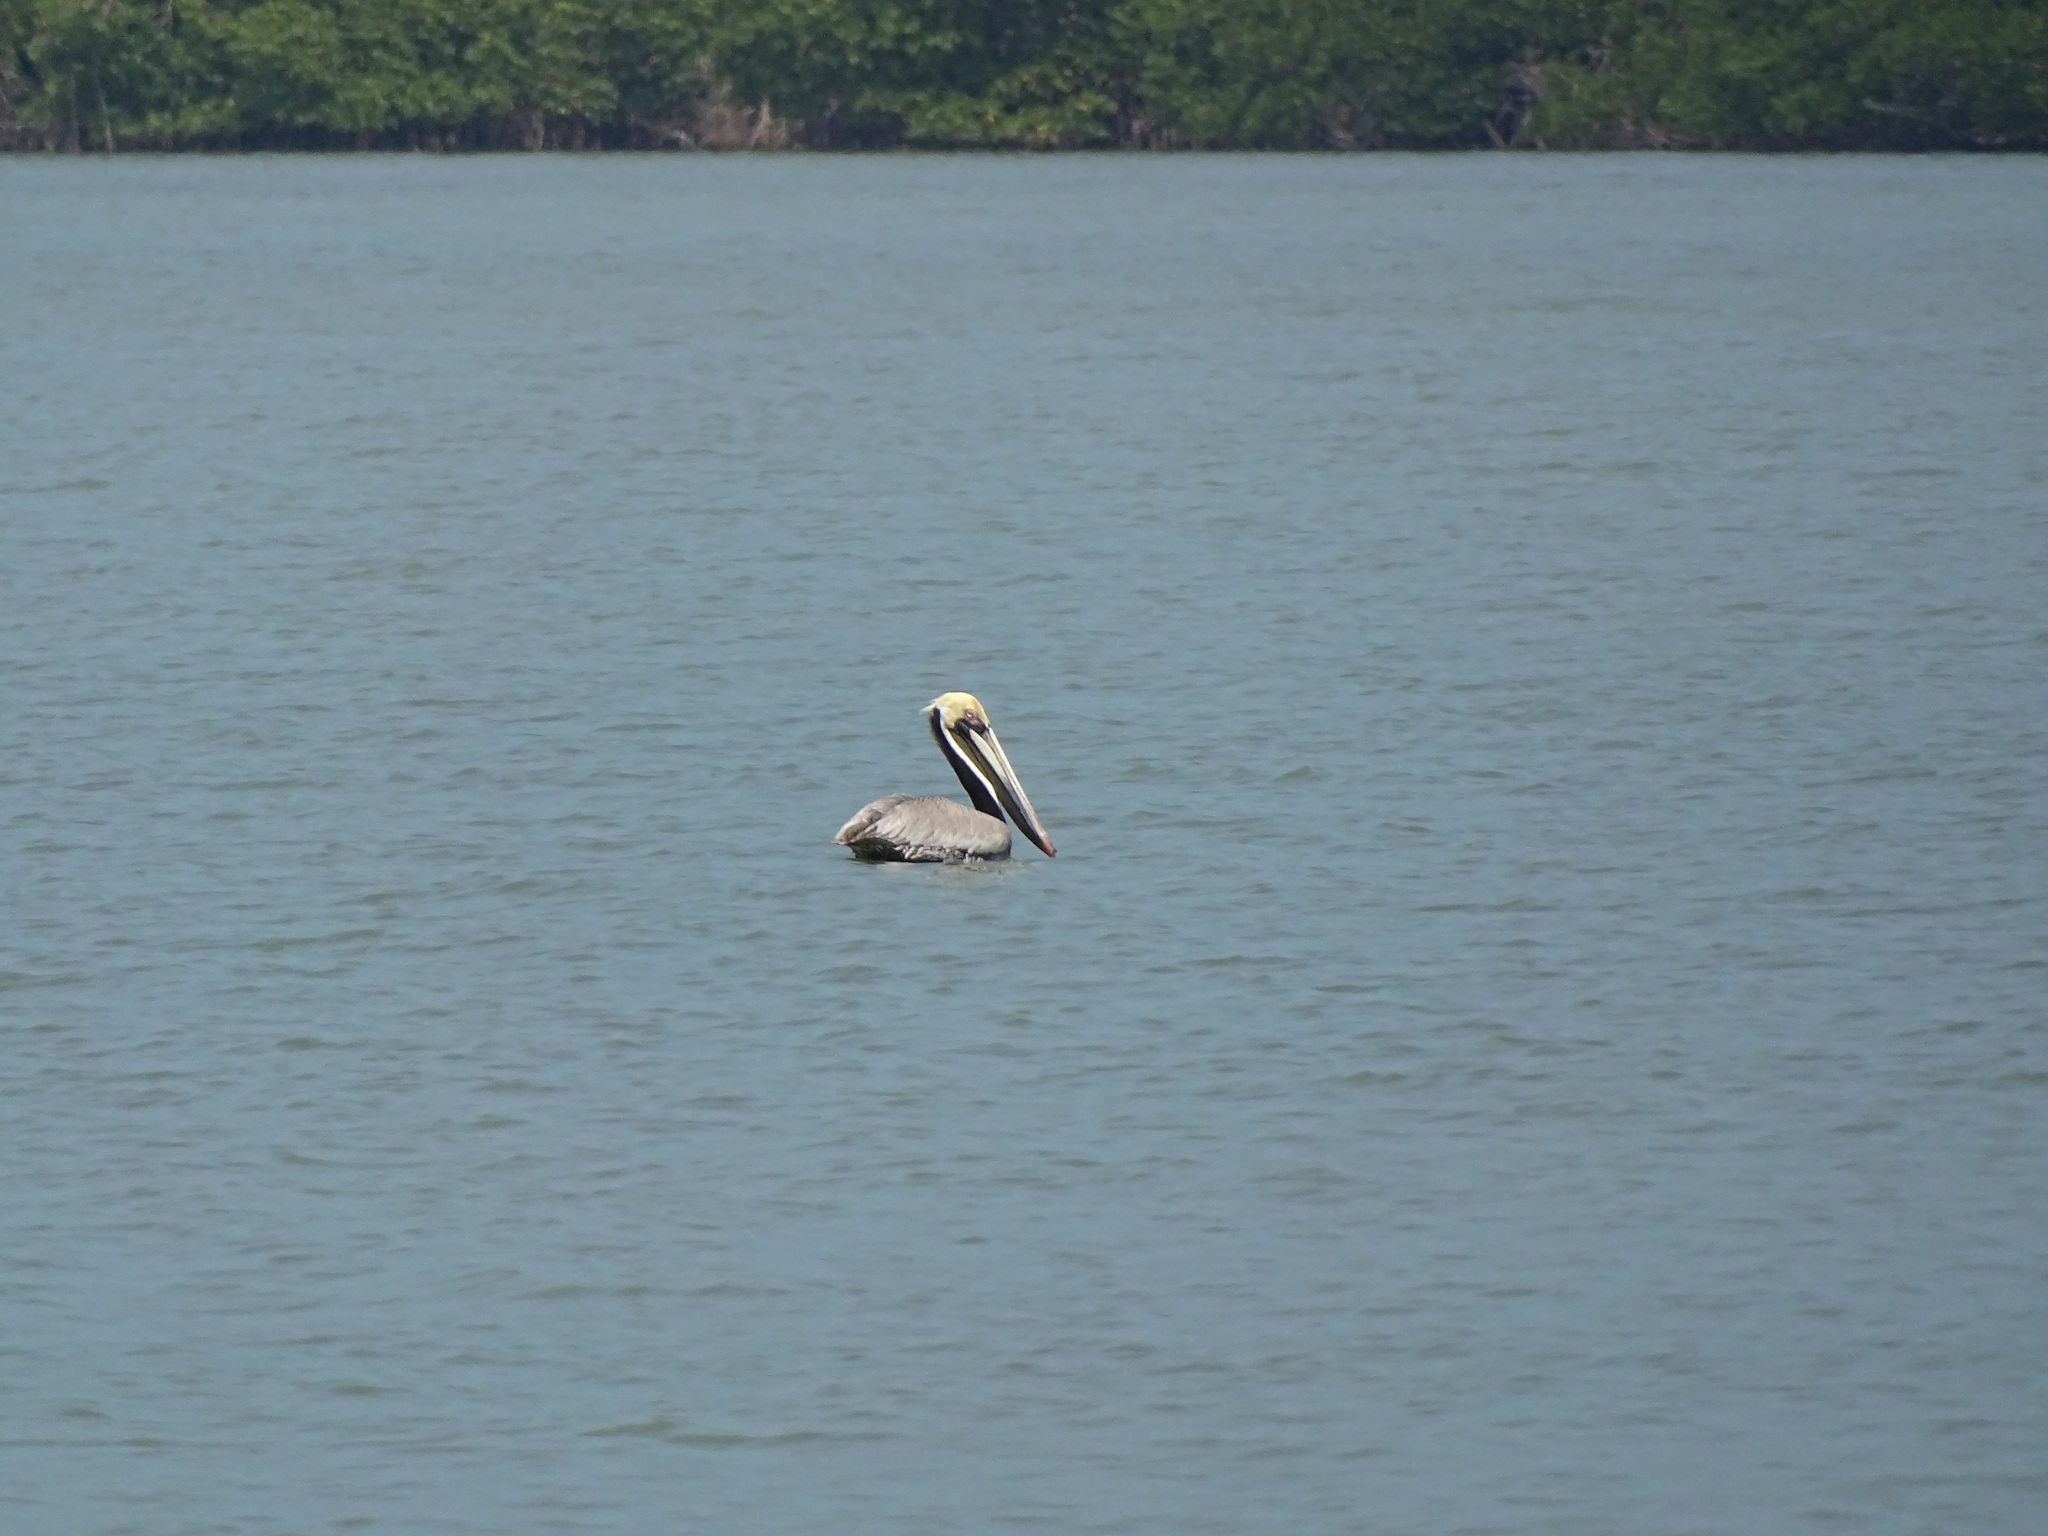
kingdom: Animalia
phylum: Chordata
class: Aves
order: Pelecaniformes
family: Pelecanidae
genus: Pelecanus
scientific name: Pelecanus occidentalis
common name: Brown pelican
